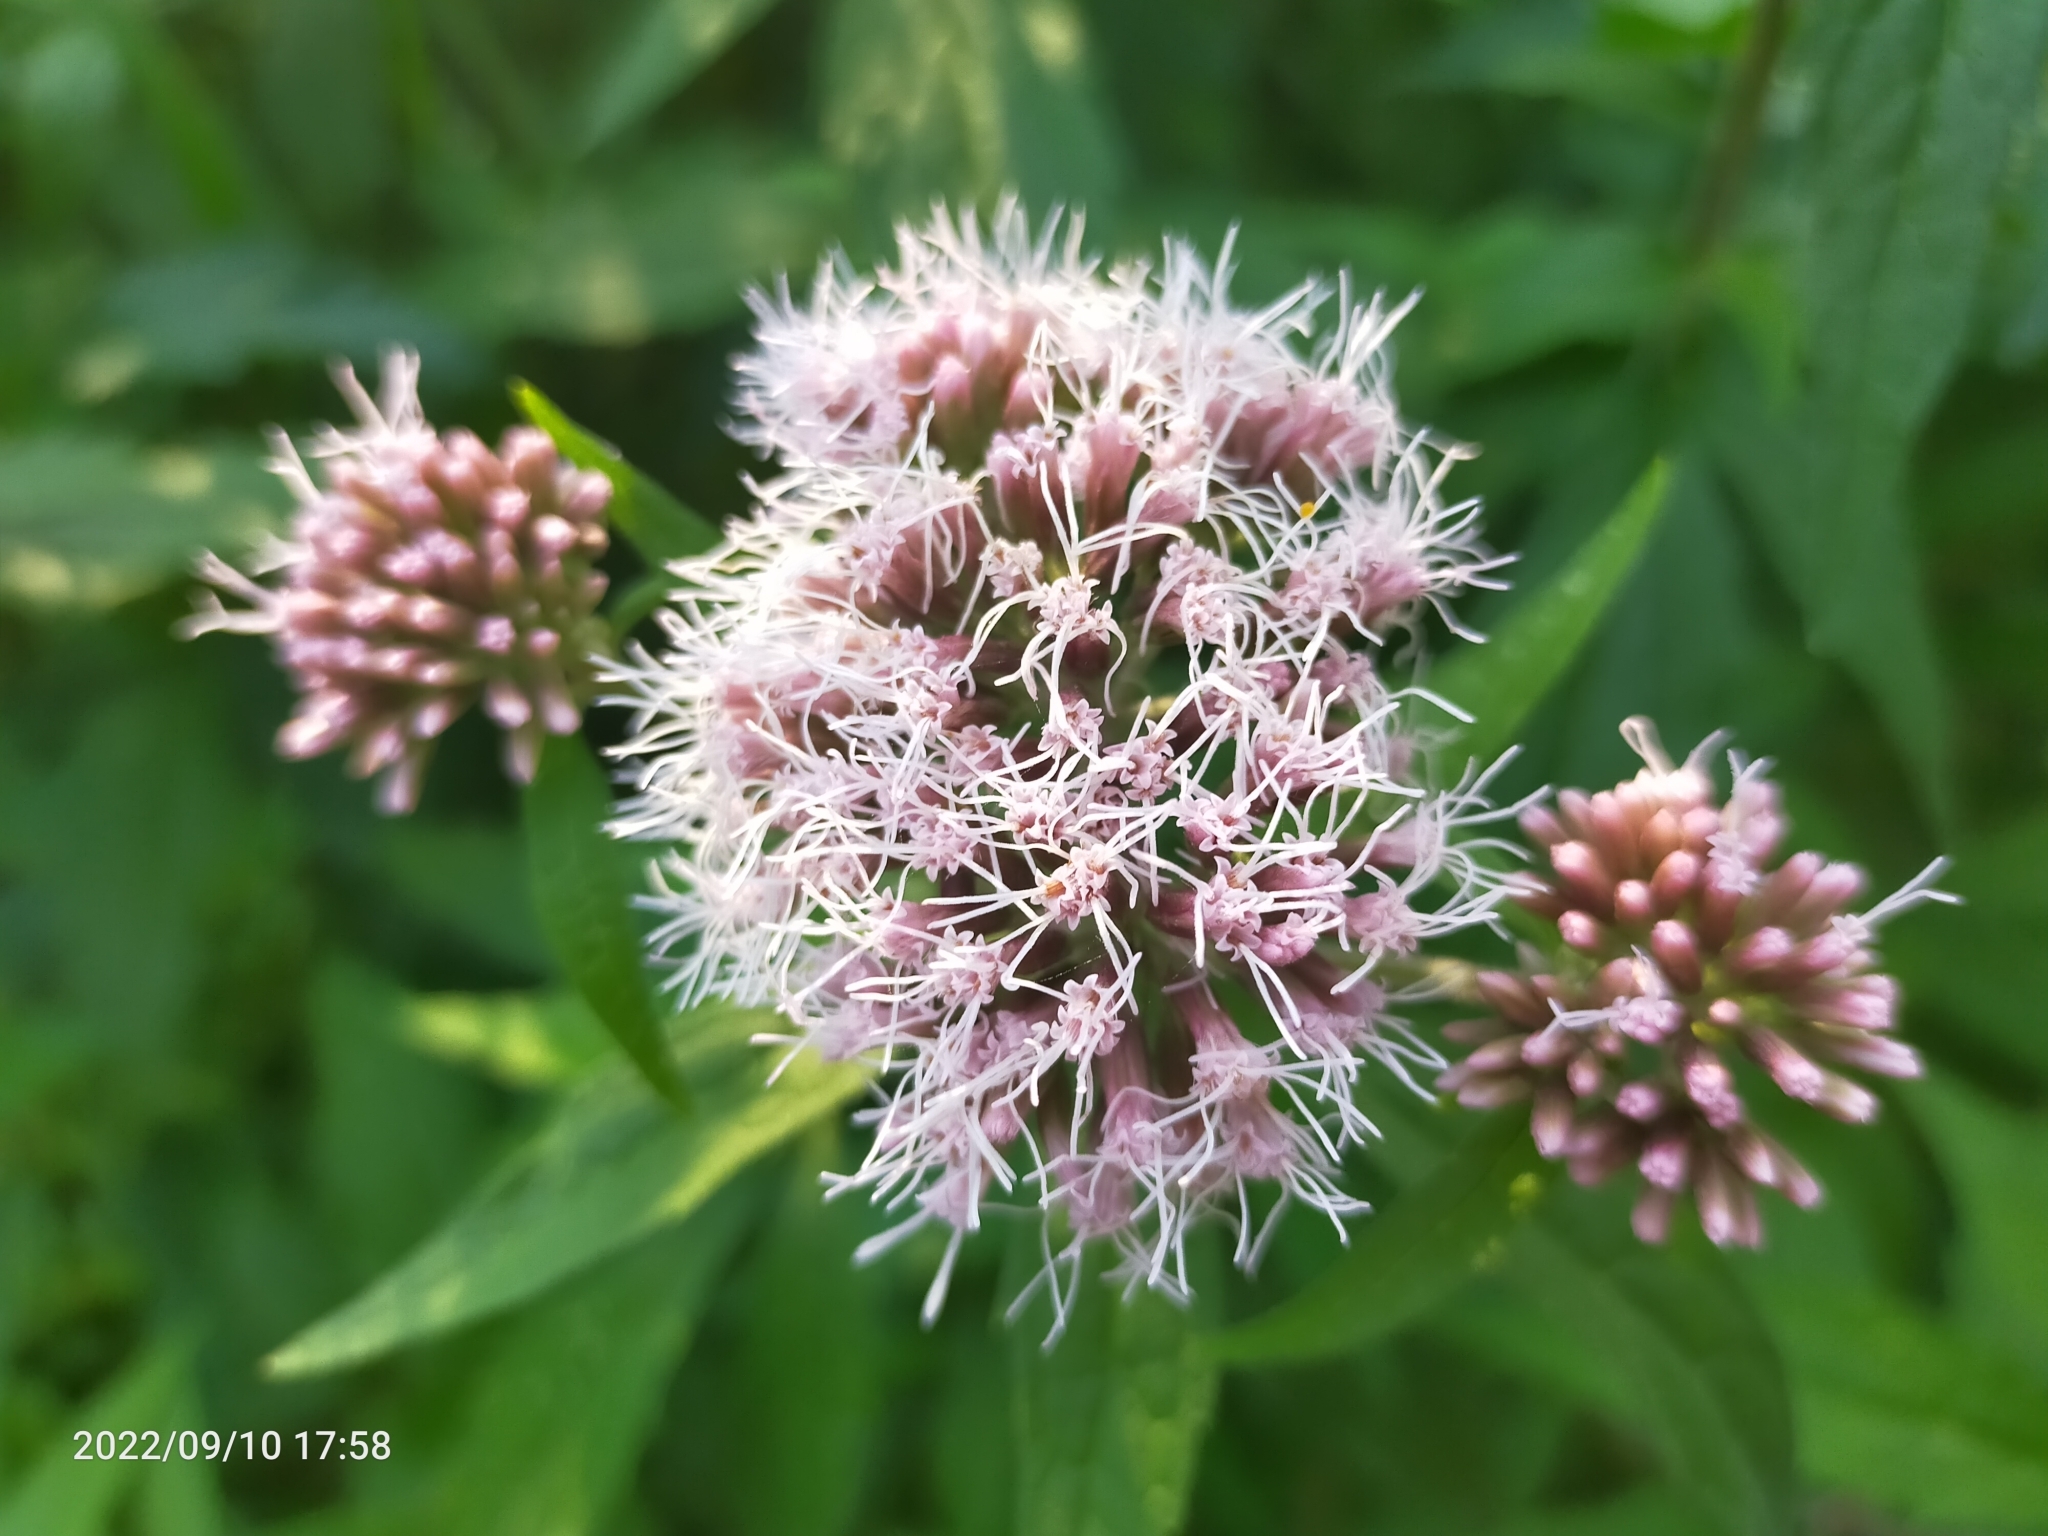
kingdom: Plantae
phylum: Tracheophyta
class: Magnoliopsida
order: Asterales
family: Asteraceae
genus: Eupatorium
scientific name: Eupatorium cannabinum
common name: Hemp-agrimony
